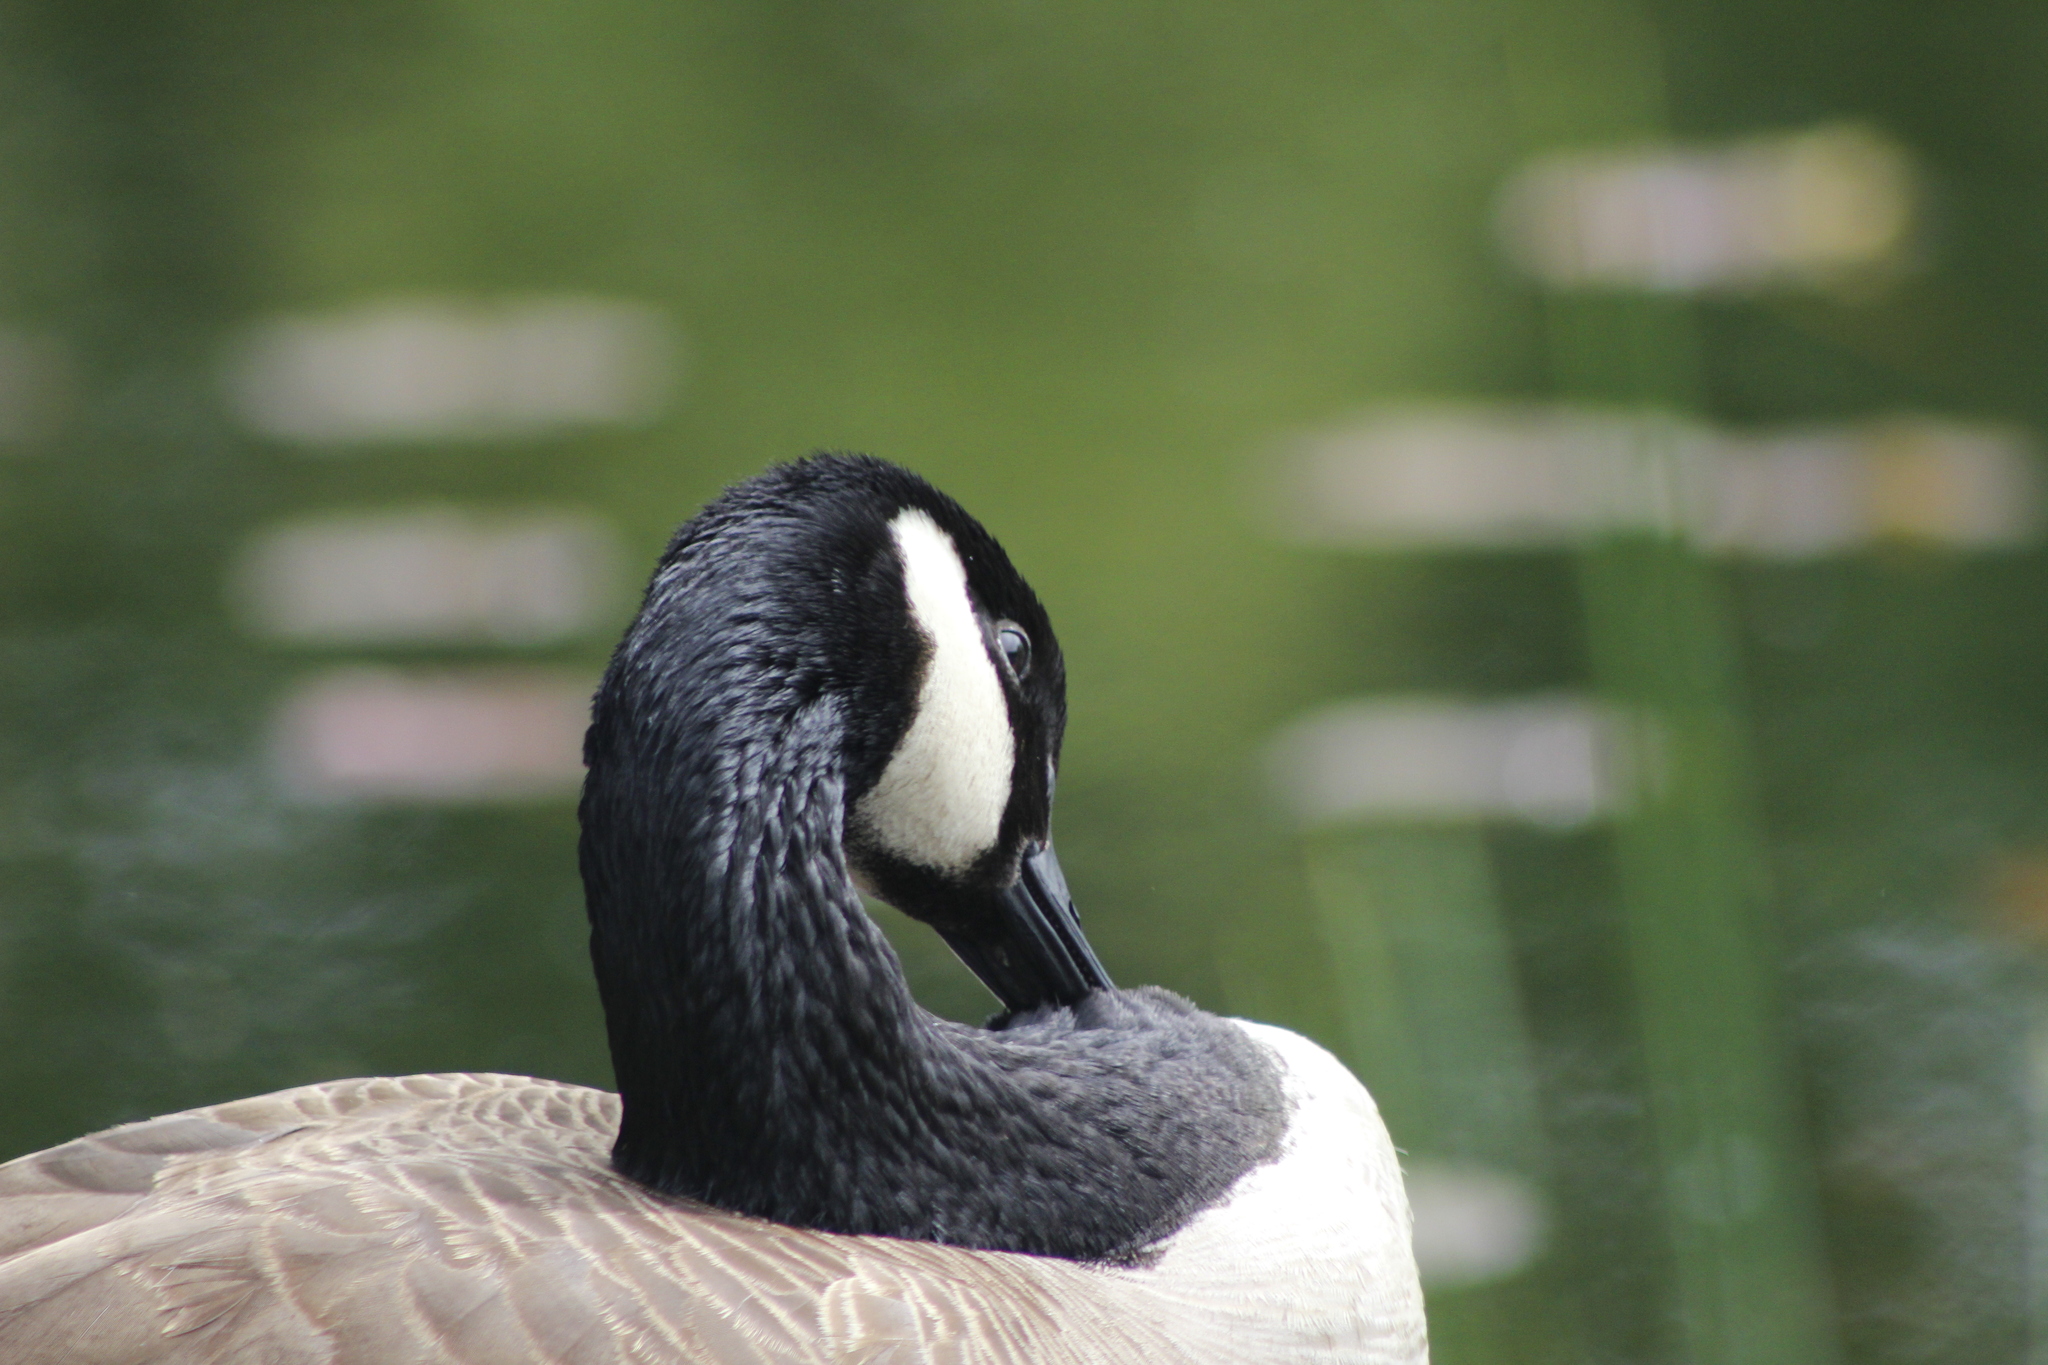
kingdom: Animalia
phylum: Chordata
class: Aves
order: Anseriformes
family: Anatidae
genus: Branta
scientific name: Branta canadensis
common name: Canada goose
